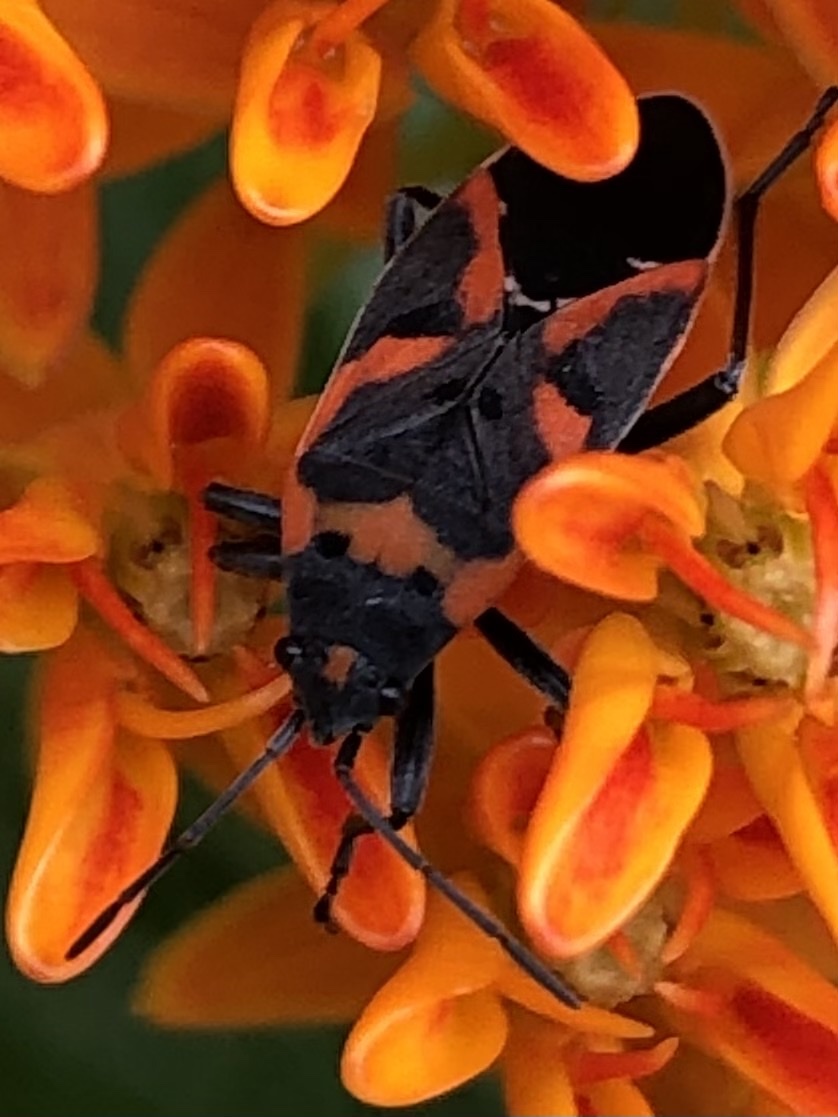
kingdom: Animalia
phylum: Arthropoda
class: Insecta
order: Hemiptera
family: Lygaeidae
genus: Lygaeus
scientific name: Lygaeus kalmii
